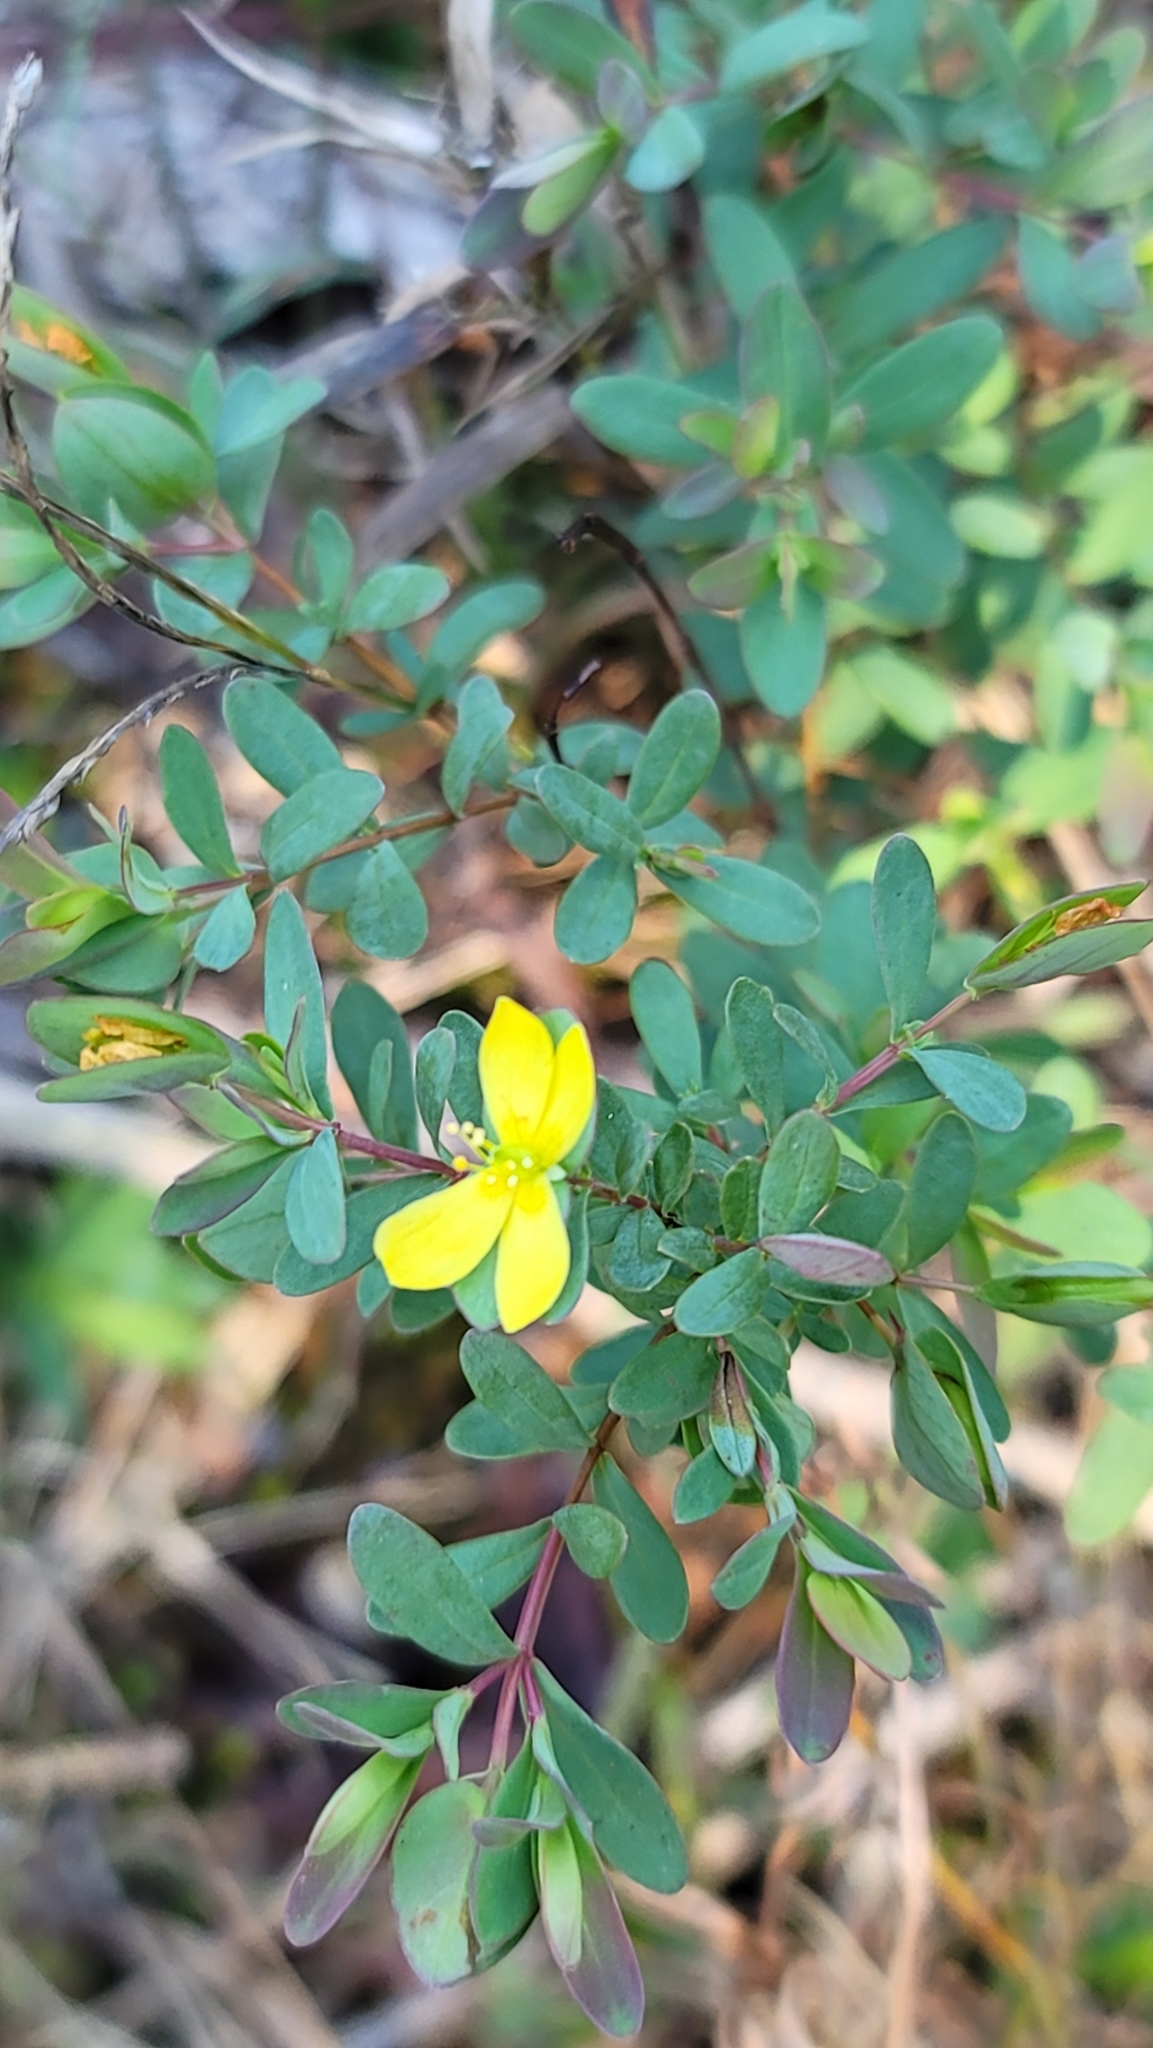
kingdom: Plantae
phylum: Tracheophyta
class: Magnoliopsida
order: Malpighiales
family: Hypericaceae
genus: Hypericum
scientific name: Hypericum hypericoides
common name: St. andrew's cross
